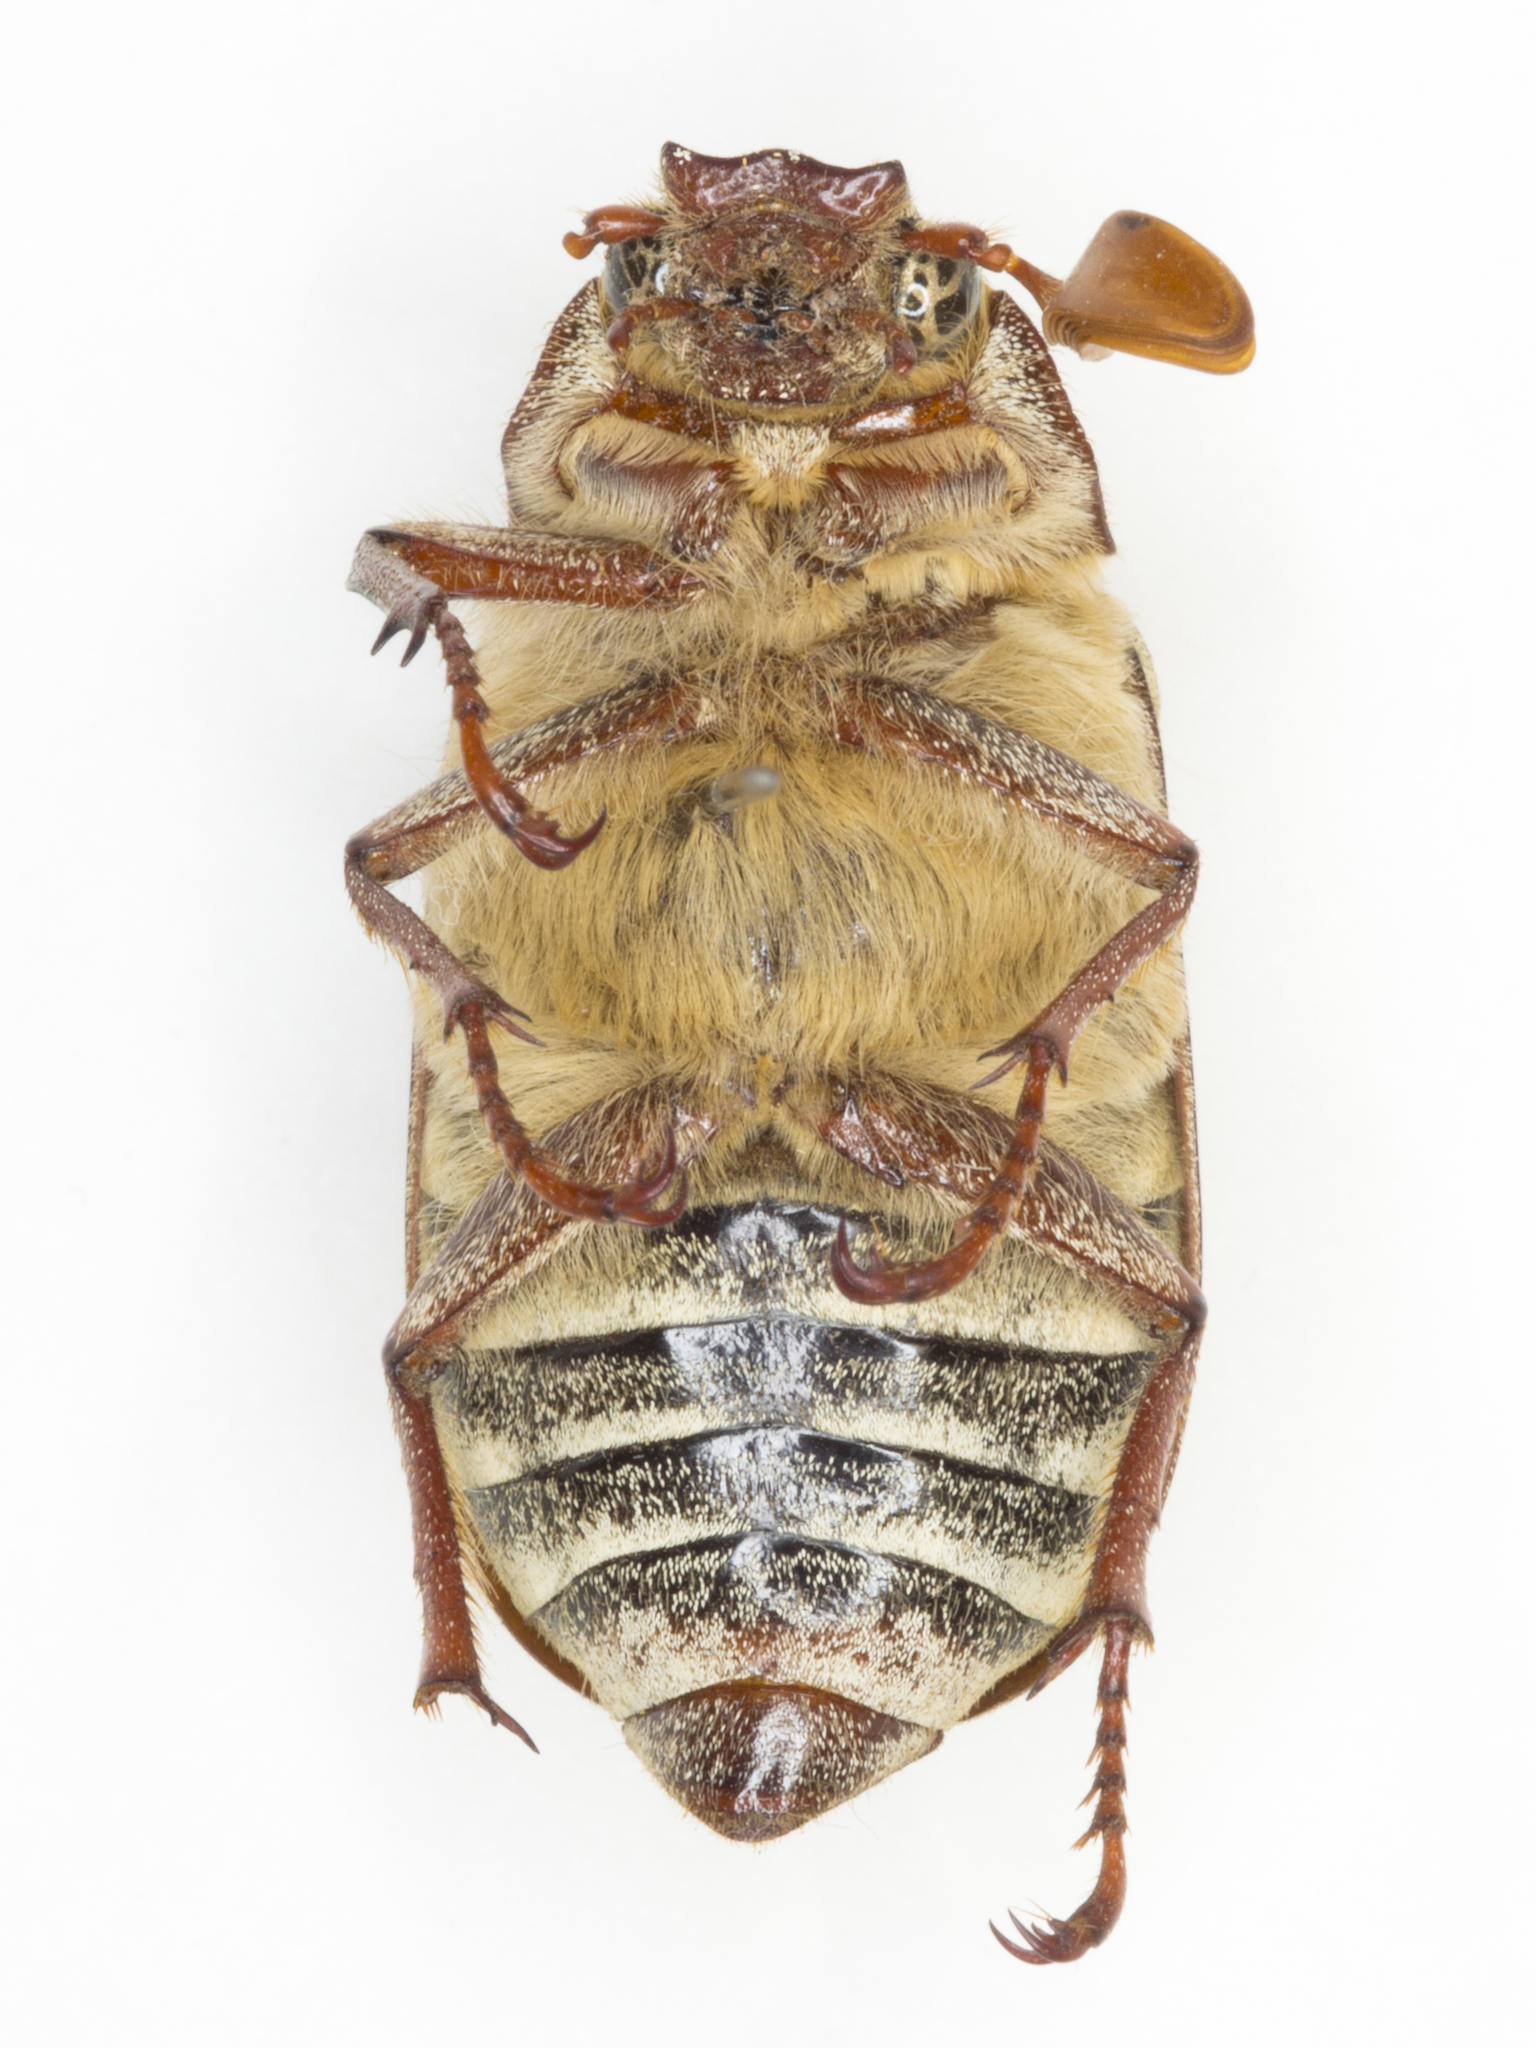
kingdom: Animalia
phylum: Arthropoda
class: Insecta
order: Coleoptera
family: Scarabaeidae
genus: Polyphylla
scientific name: Polyphylla decemlineata
